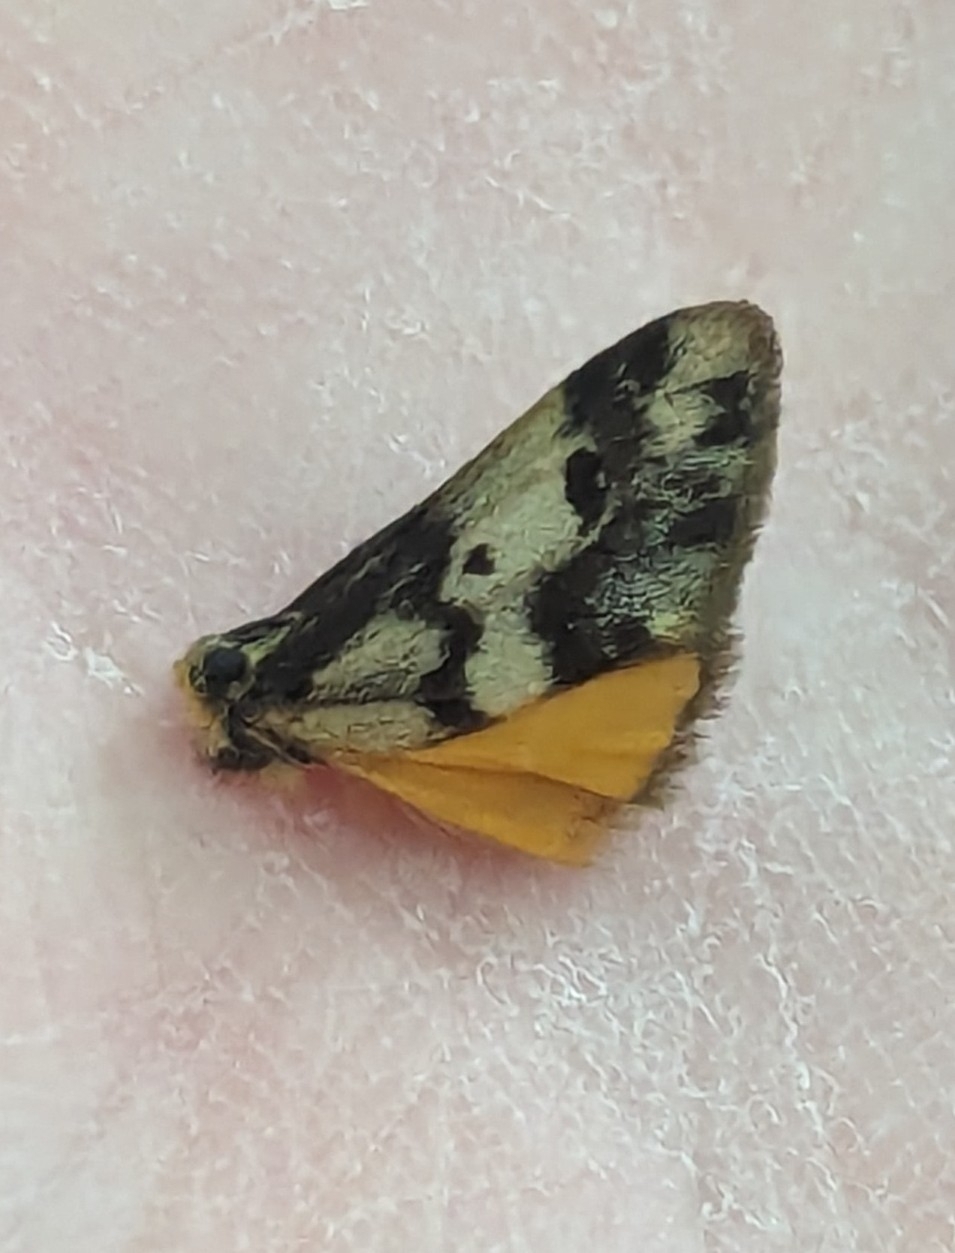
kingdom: Animalia
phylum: Arthropoda
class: Insecta
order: Lepidoptera
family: Erebidae
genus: Anestia
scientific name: Anestia
